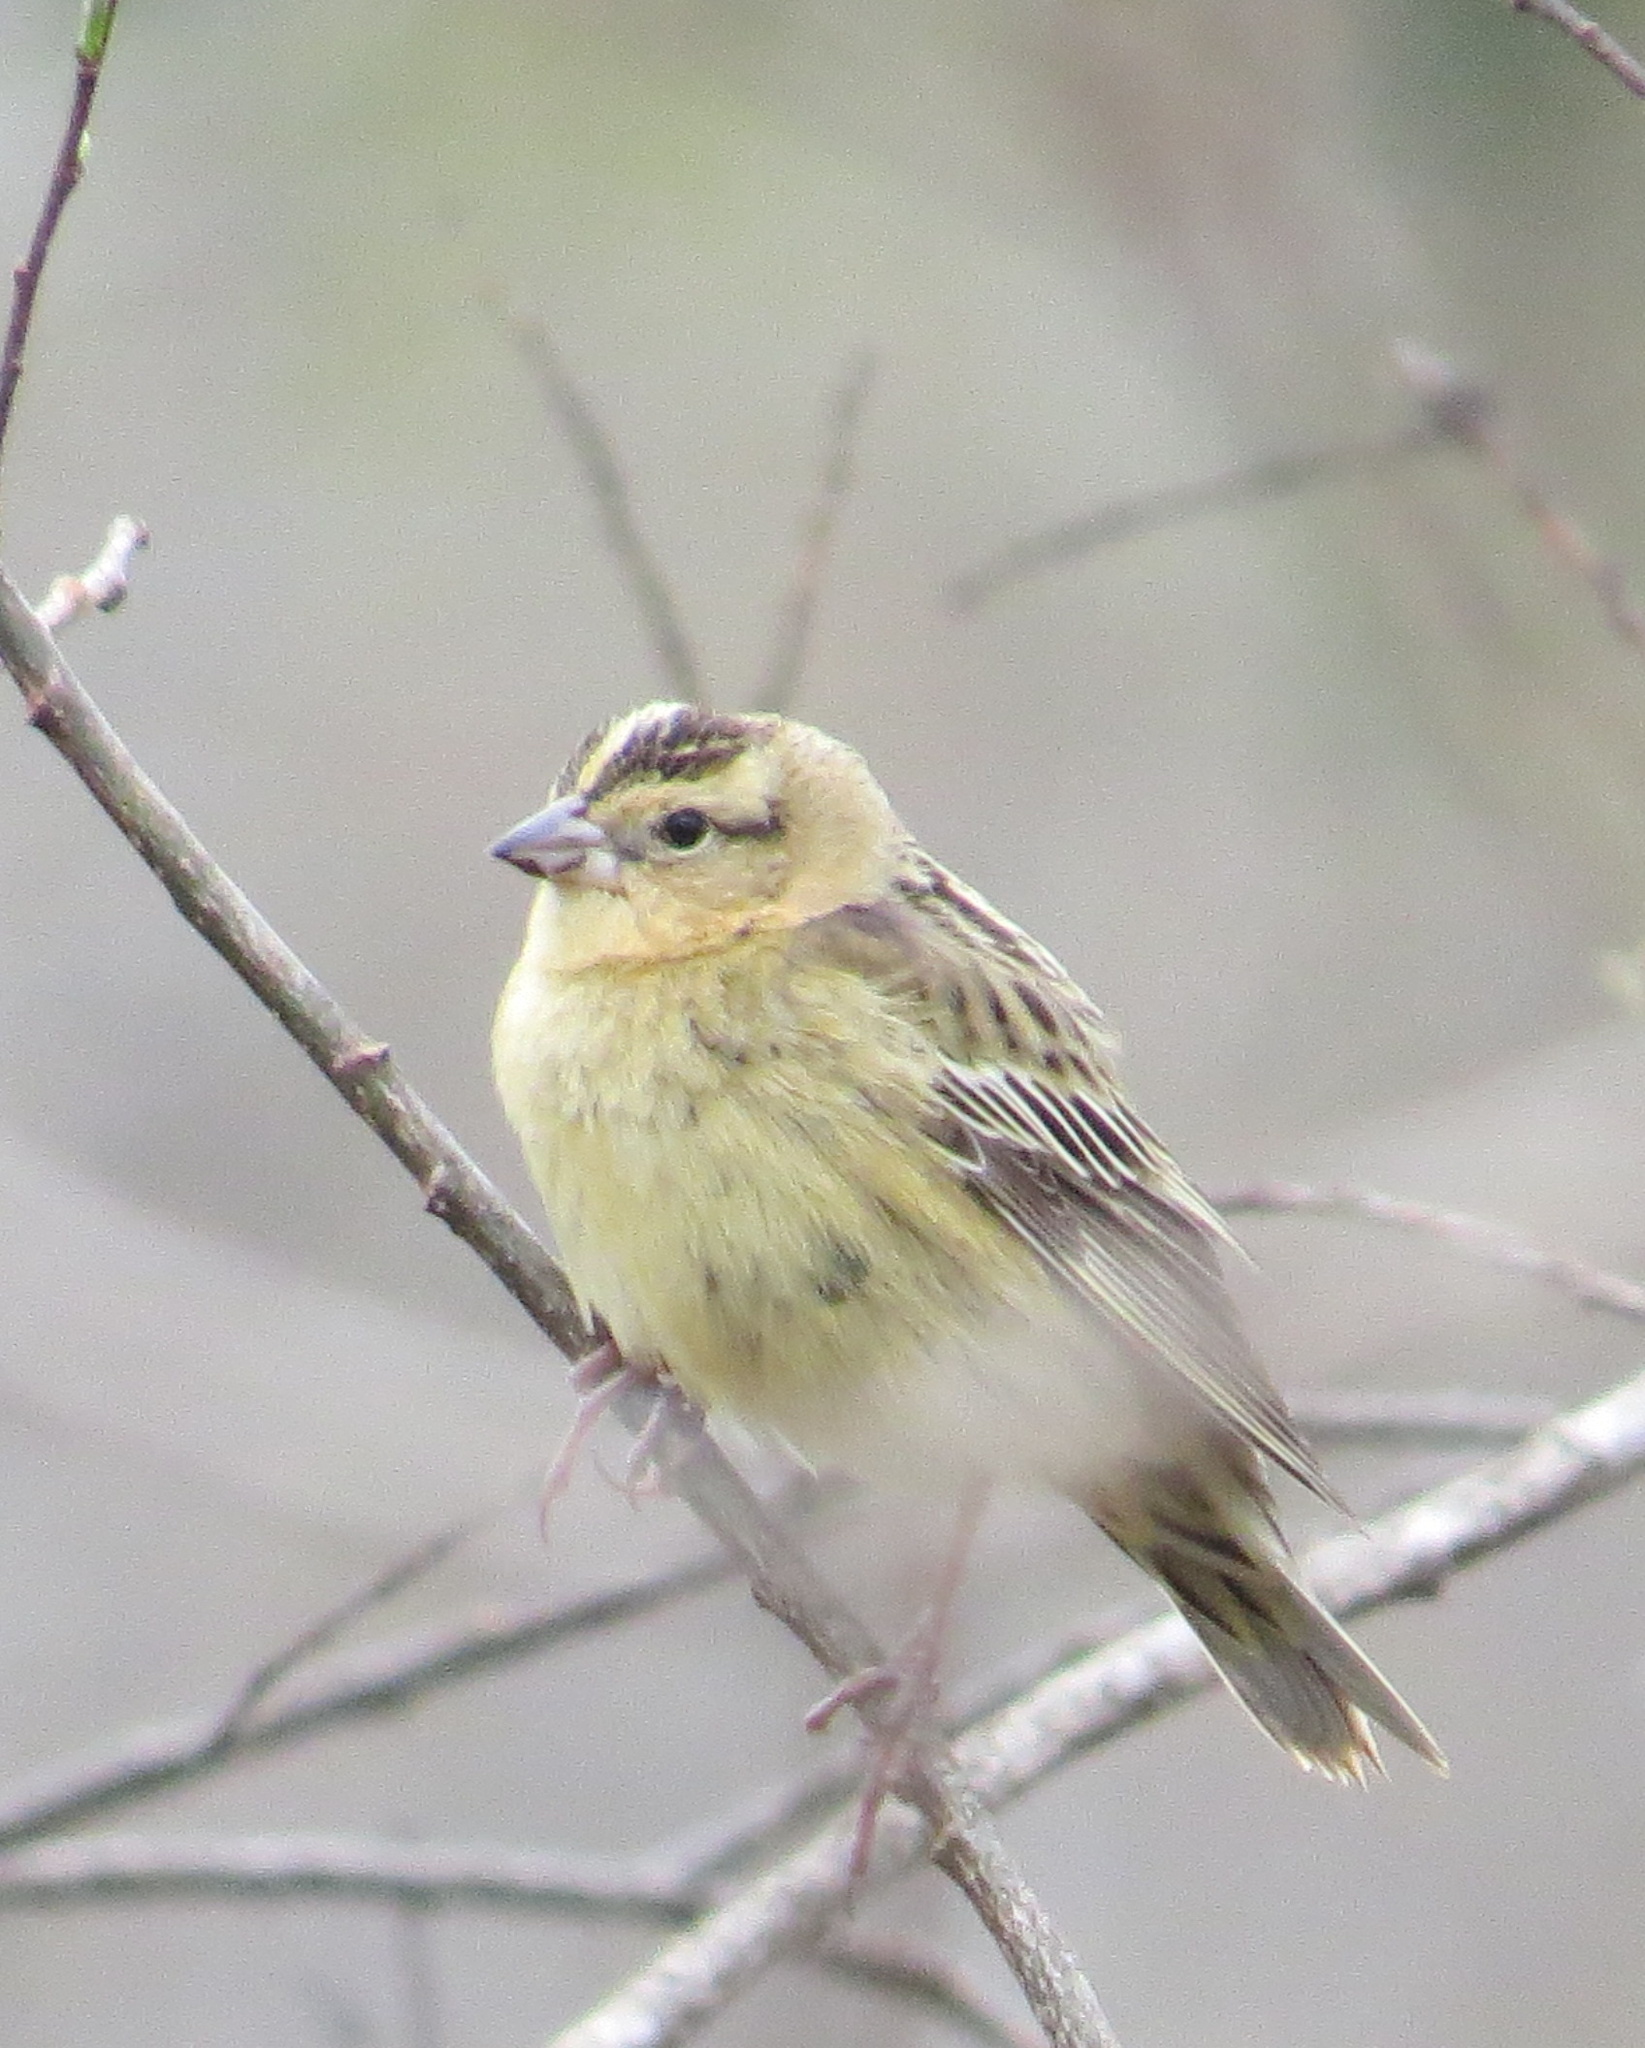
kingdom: Animalia
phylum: Chordata
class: Aves
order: Passeriformes
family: Icteridae
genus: Dolichonyx
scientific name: Dolichonyx oryzivorus
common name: Bobolink
